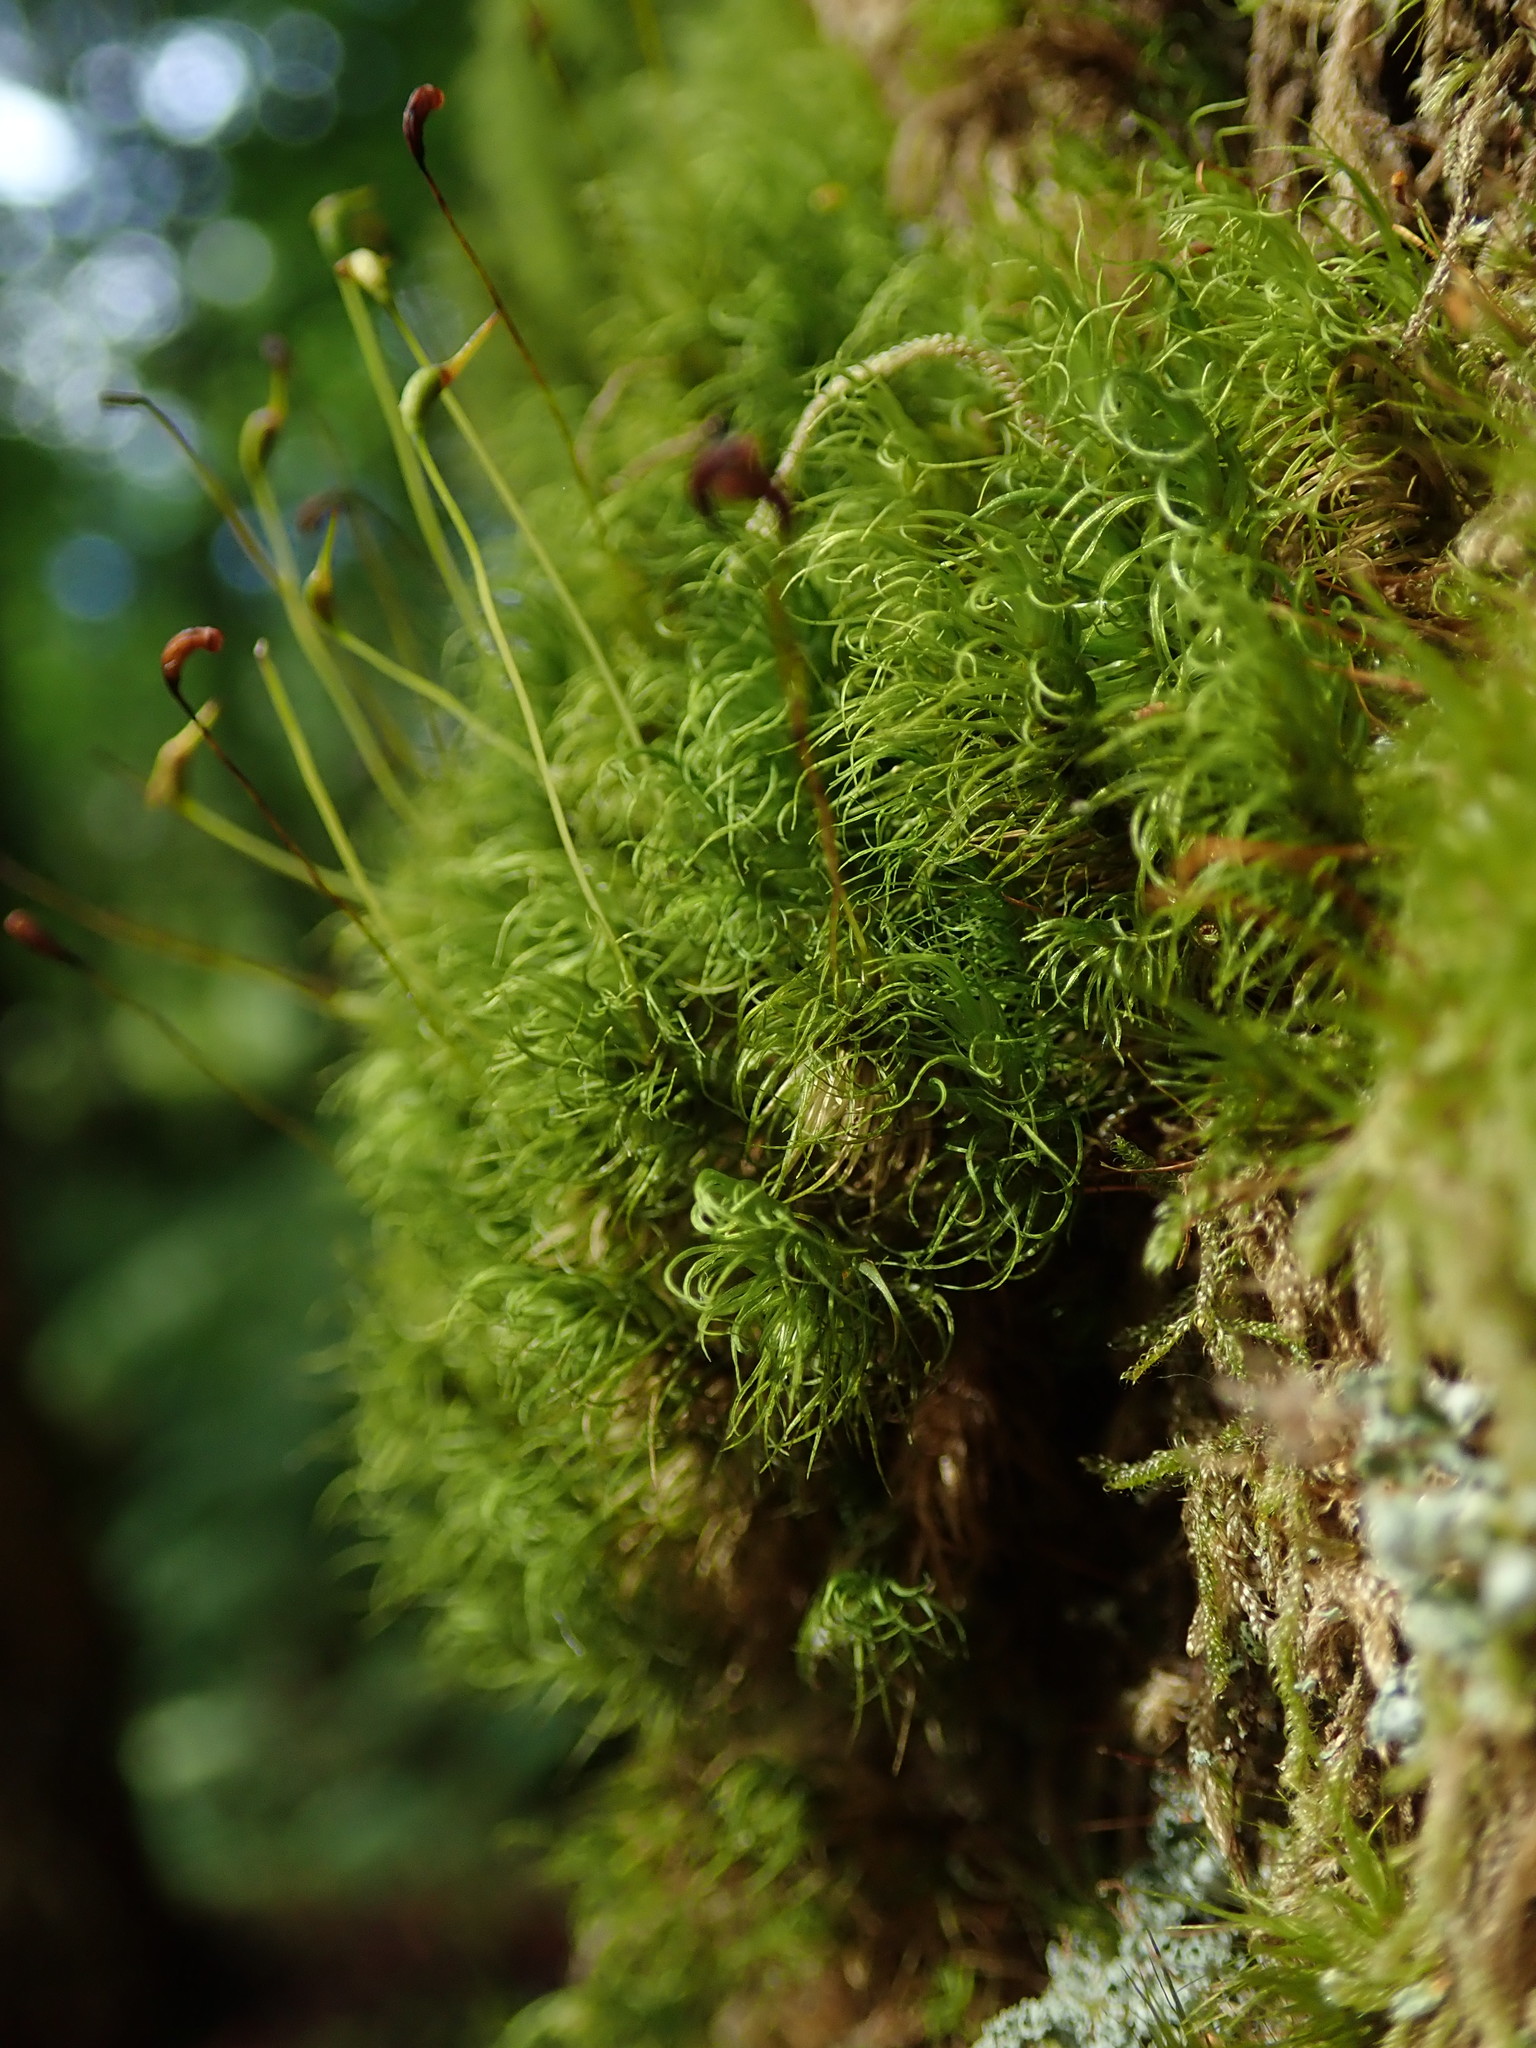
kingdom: Plantae
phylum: Bryophyta
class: Bryopsida
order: Dicranales
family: Dicranaceae
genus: Dicranum
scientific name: Dicranum fuscescens
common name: Curly heron's-bill moss
